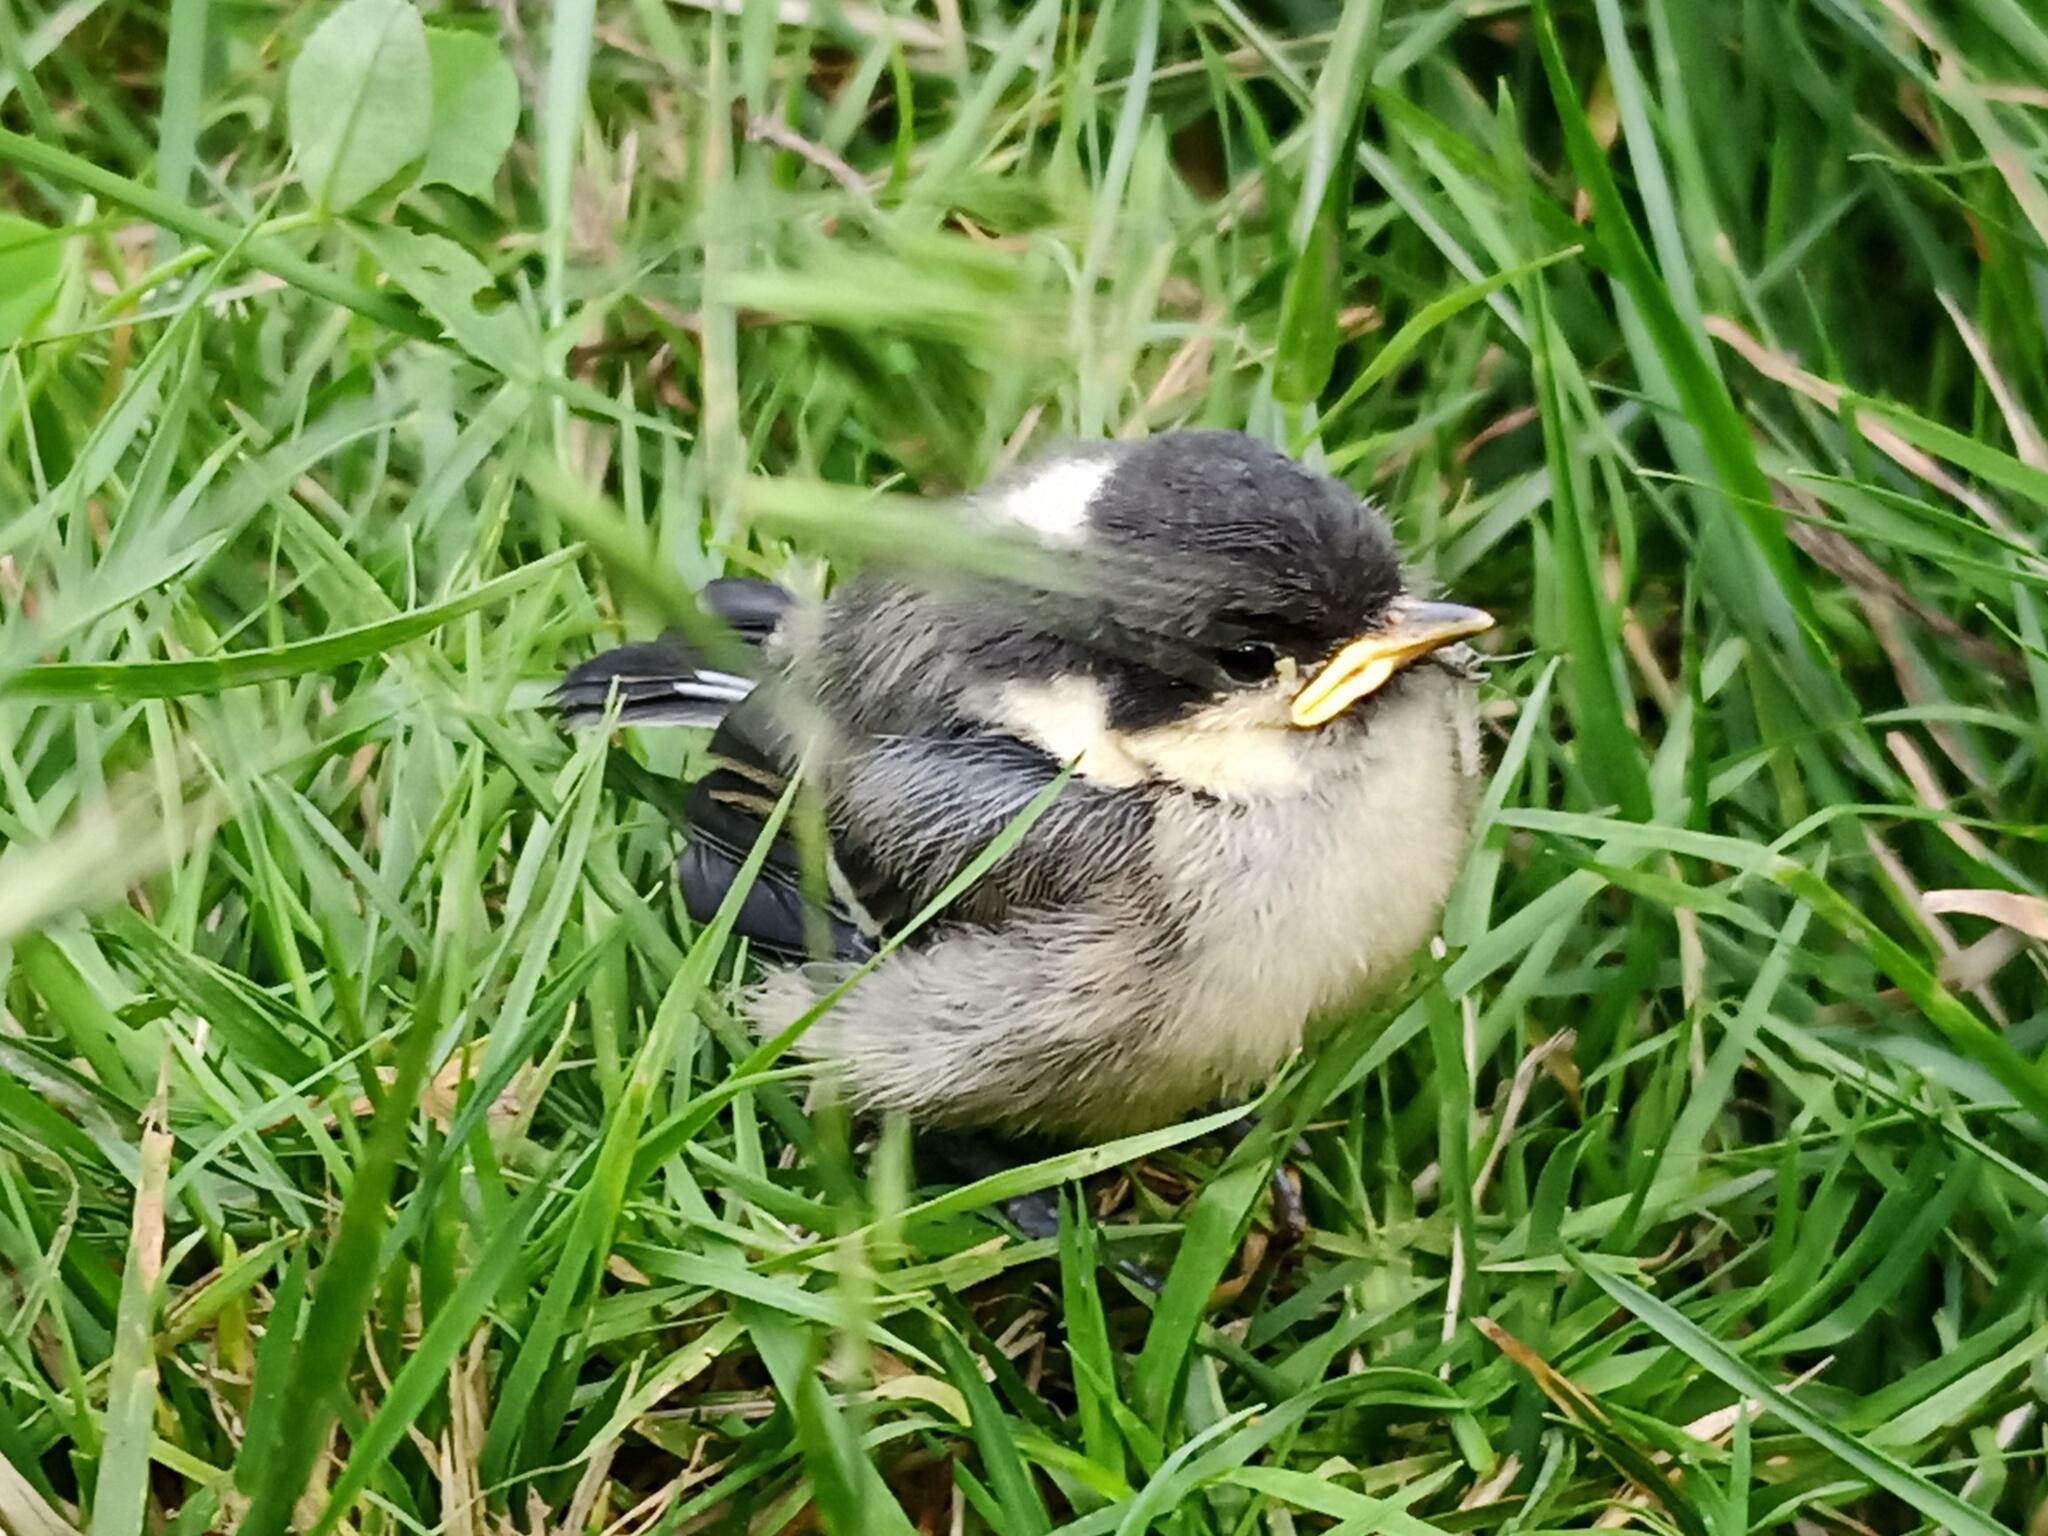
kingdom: Animalia
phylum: Chordata
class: Aves
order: Passeriformes
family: Paridae
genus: Periparus
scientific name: Periparus ater
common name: Coal tit
